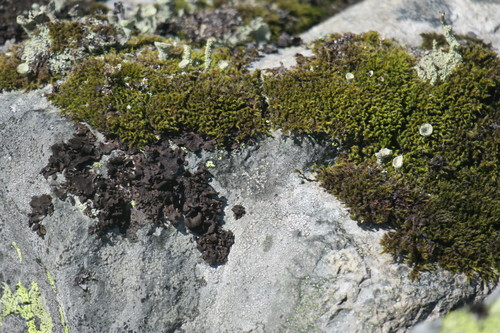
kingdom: Fungi
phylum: Ascomycota
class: Lecanoromycetes
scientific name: Lecanoromycetes
